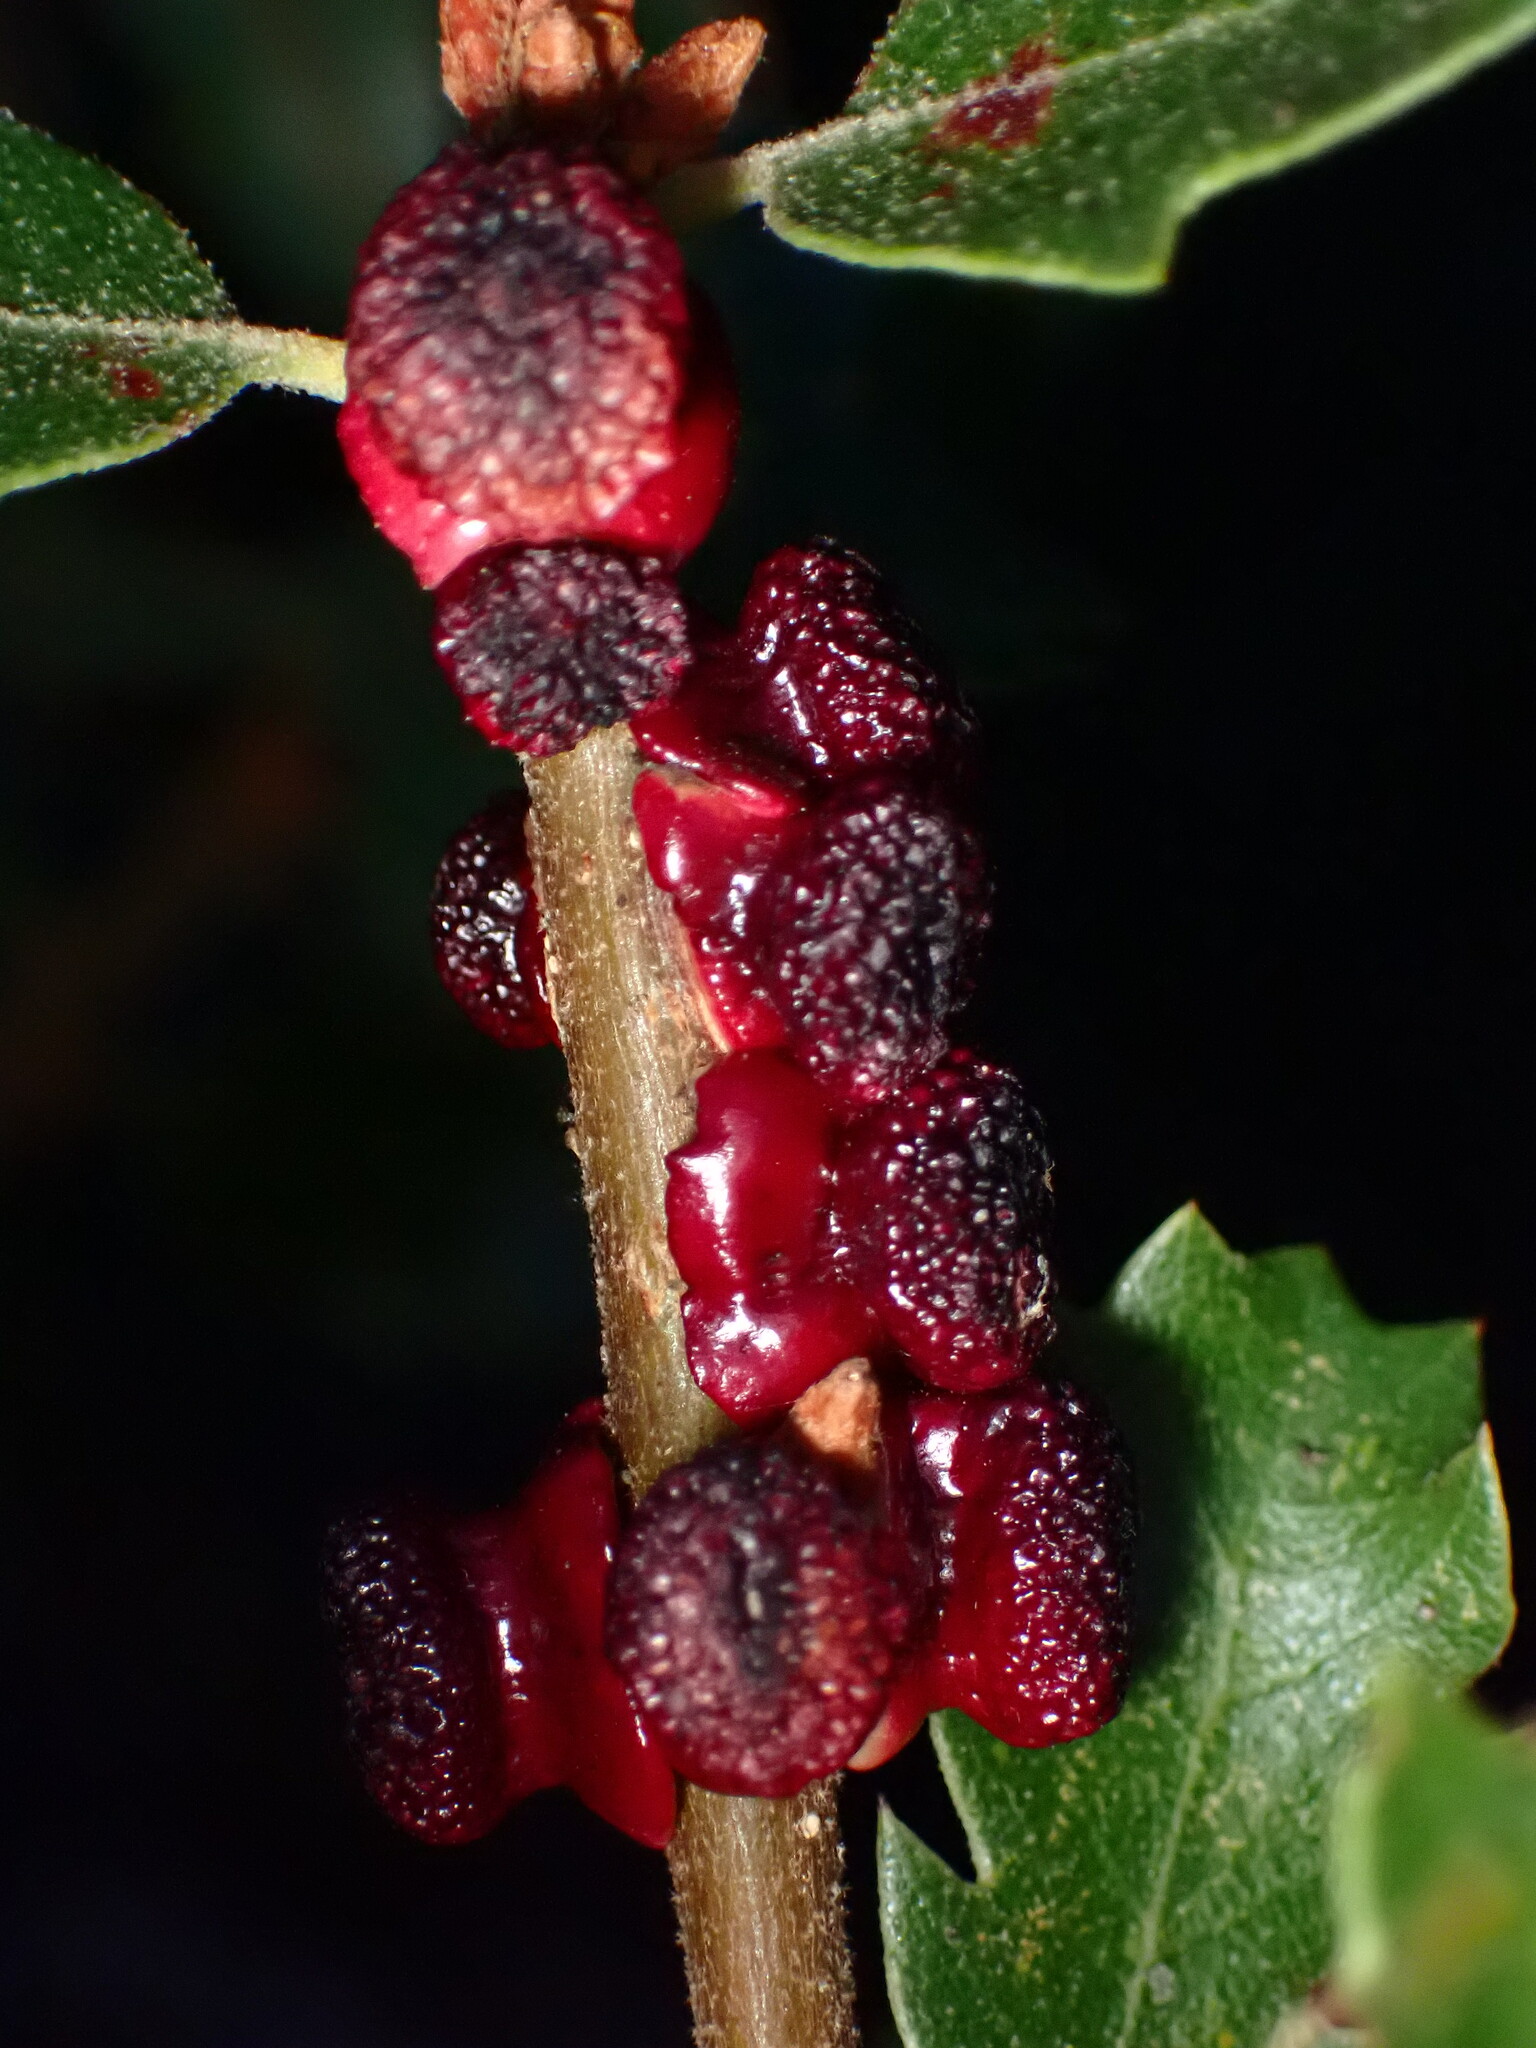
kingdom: Animalia
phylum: Arthropoda
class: Insecta
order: Hymenoptera
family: Cynipidae
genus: Disholcaspis
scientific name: Disholcaspis prehensa
